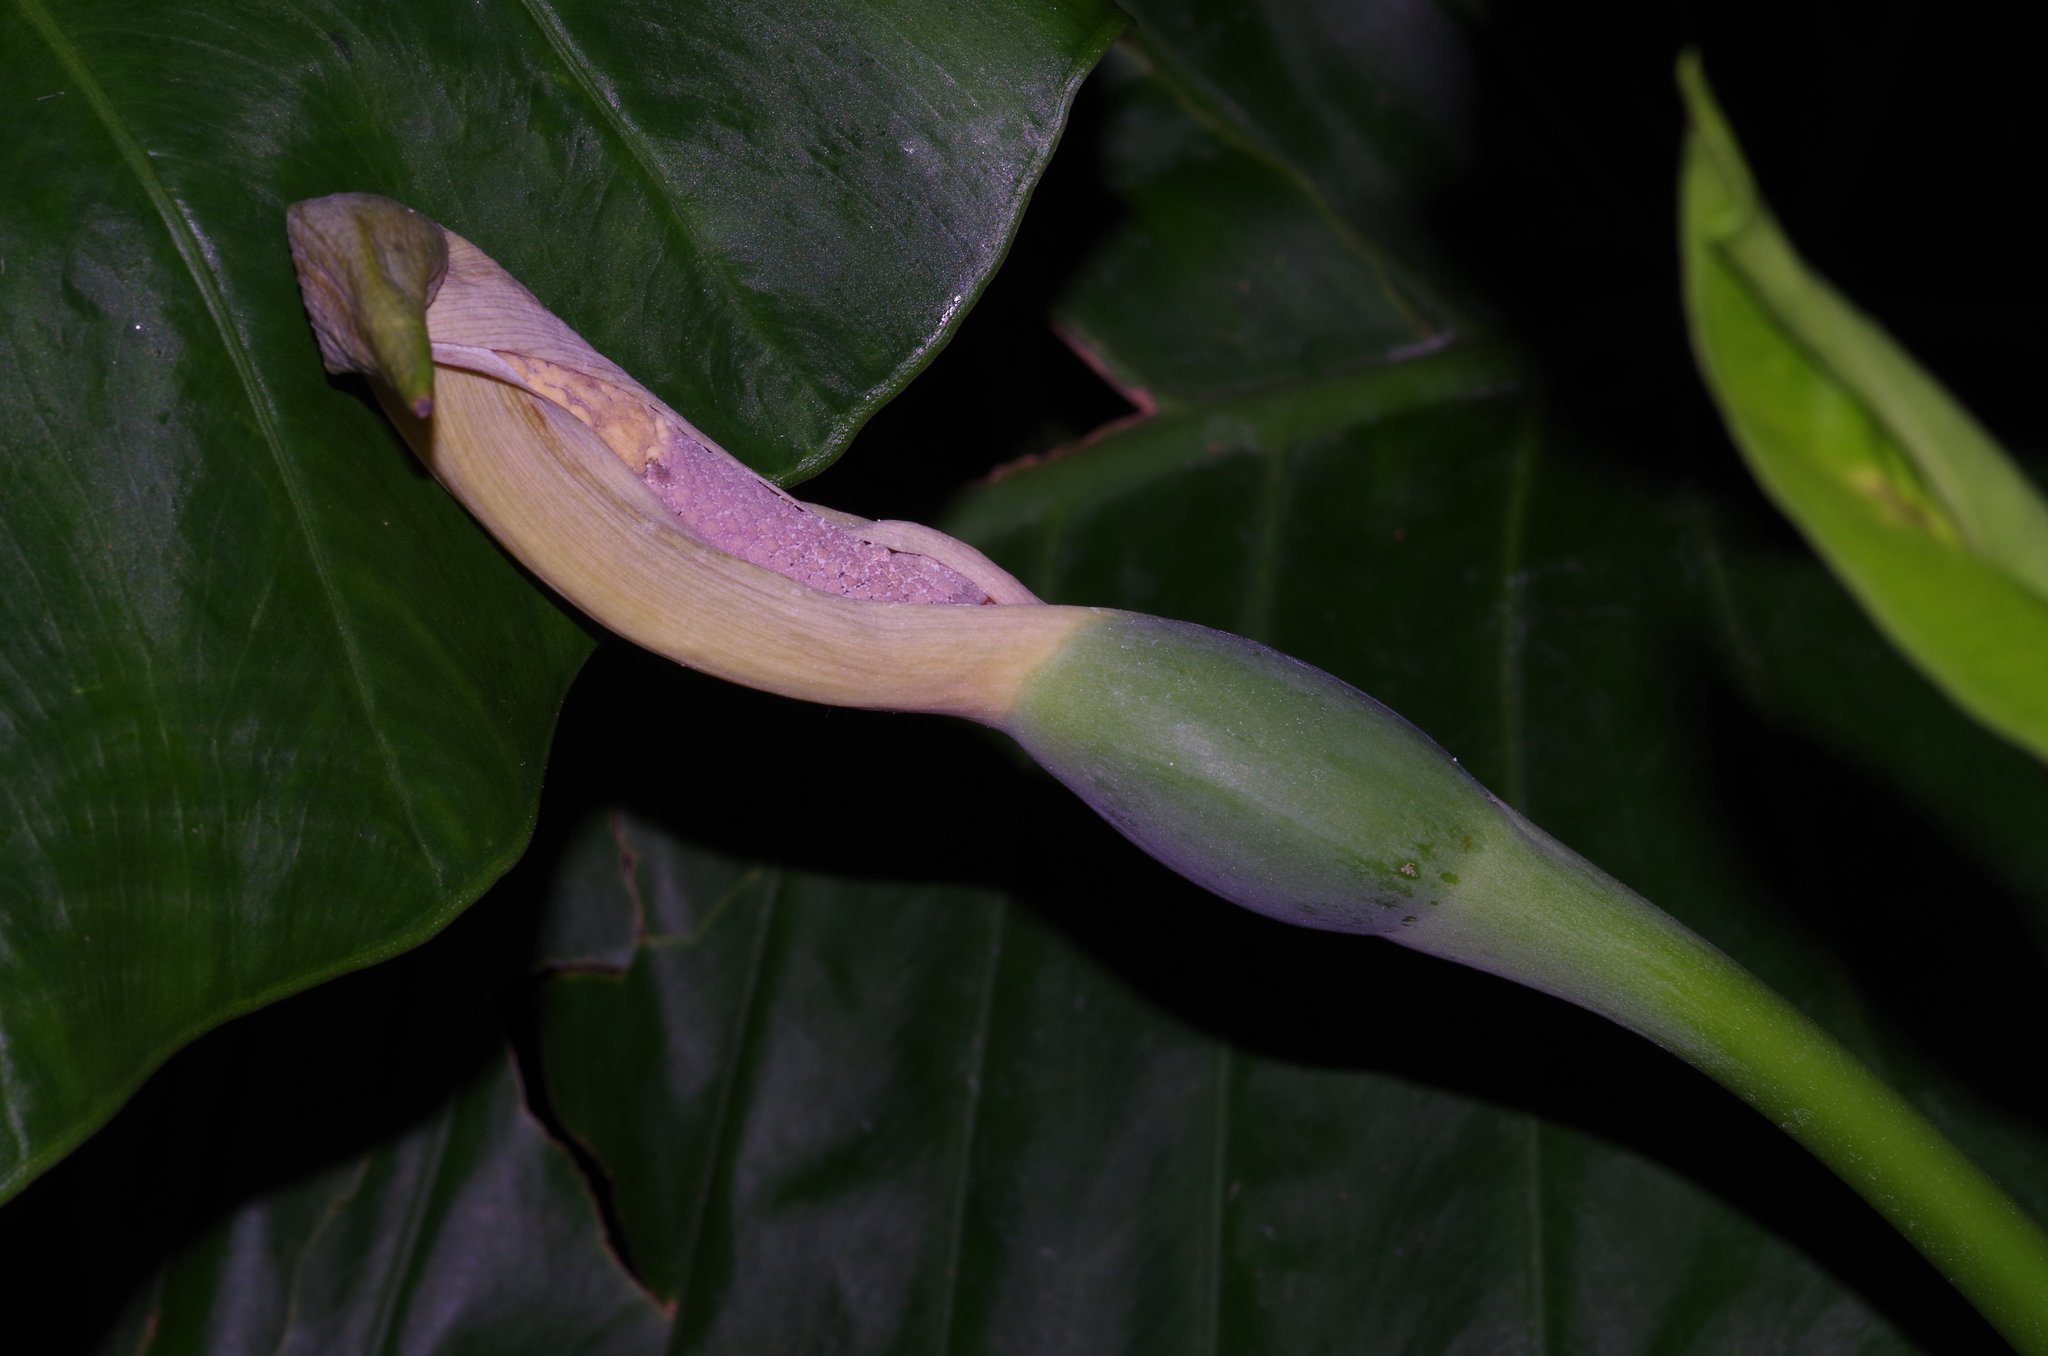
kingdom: Plantae
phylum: Tracheophyta
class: Liliopsida
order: Alismatales
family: Araceae
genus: Alocasia
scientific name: Alocasia odora
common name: Asian taro
